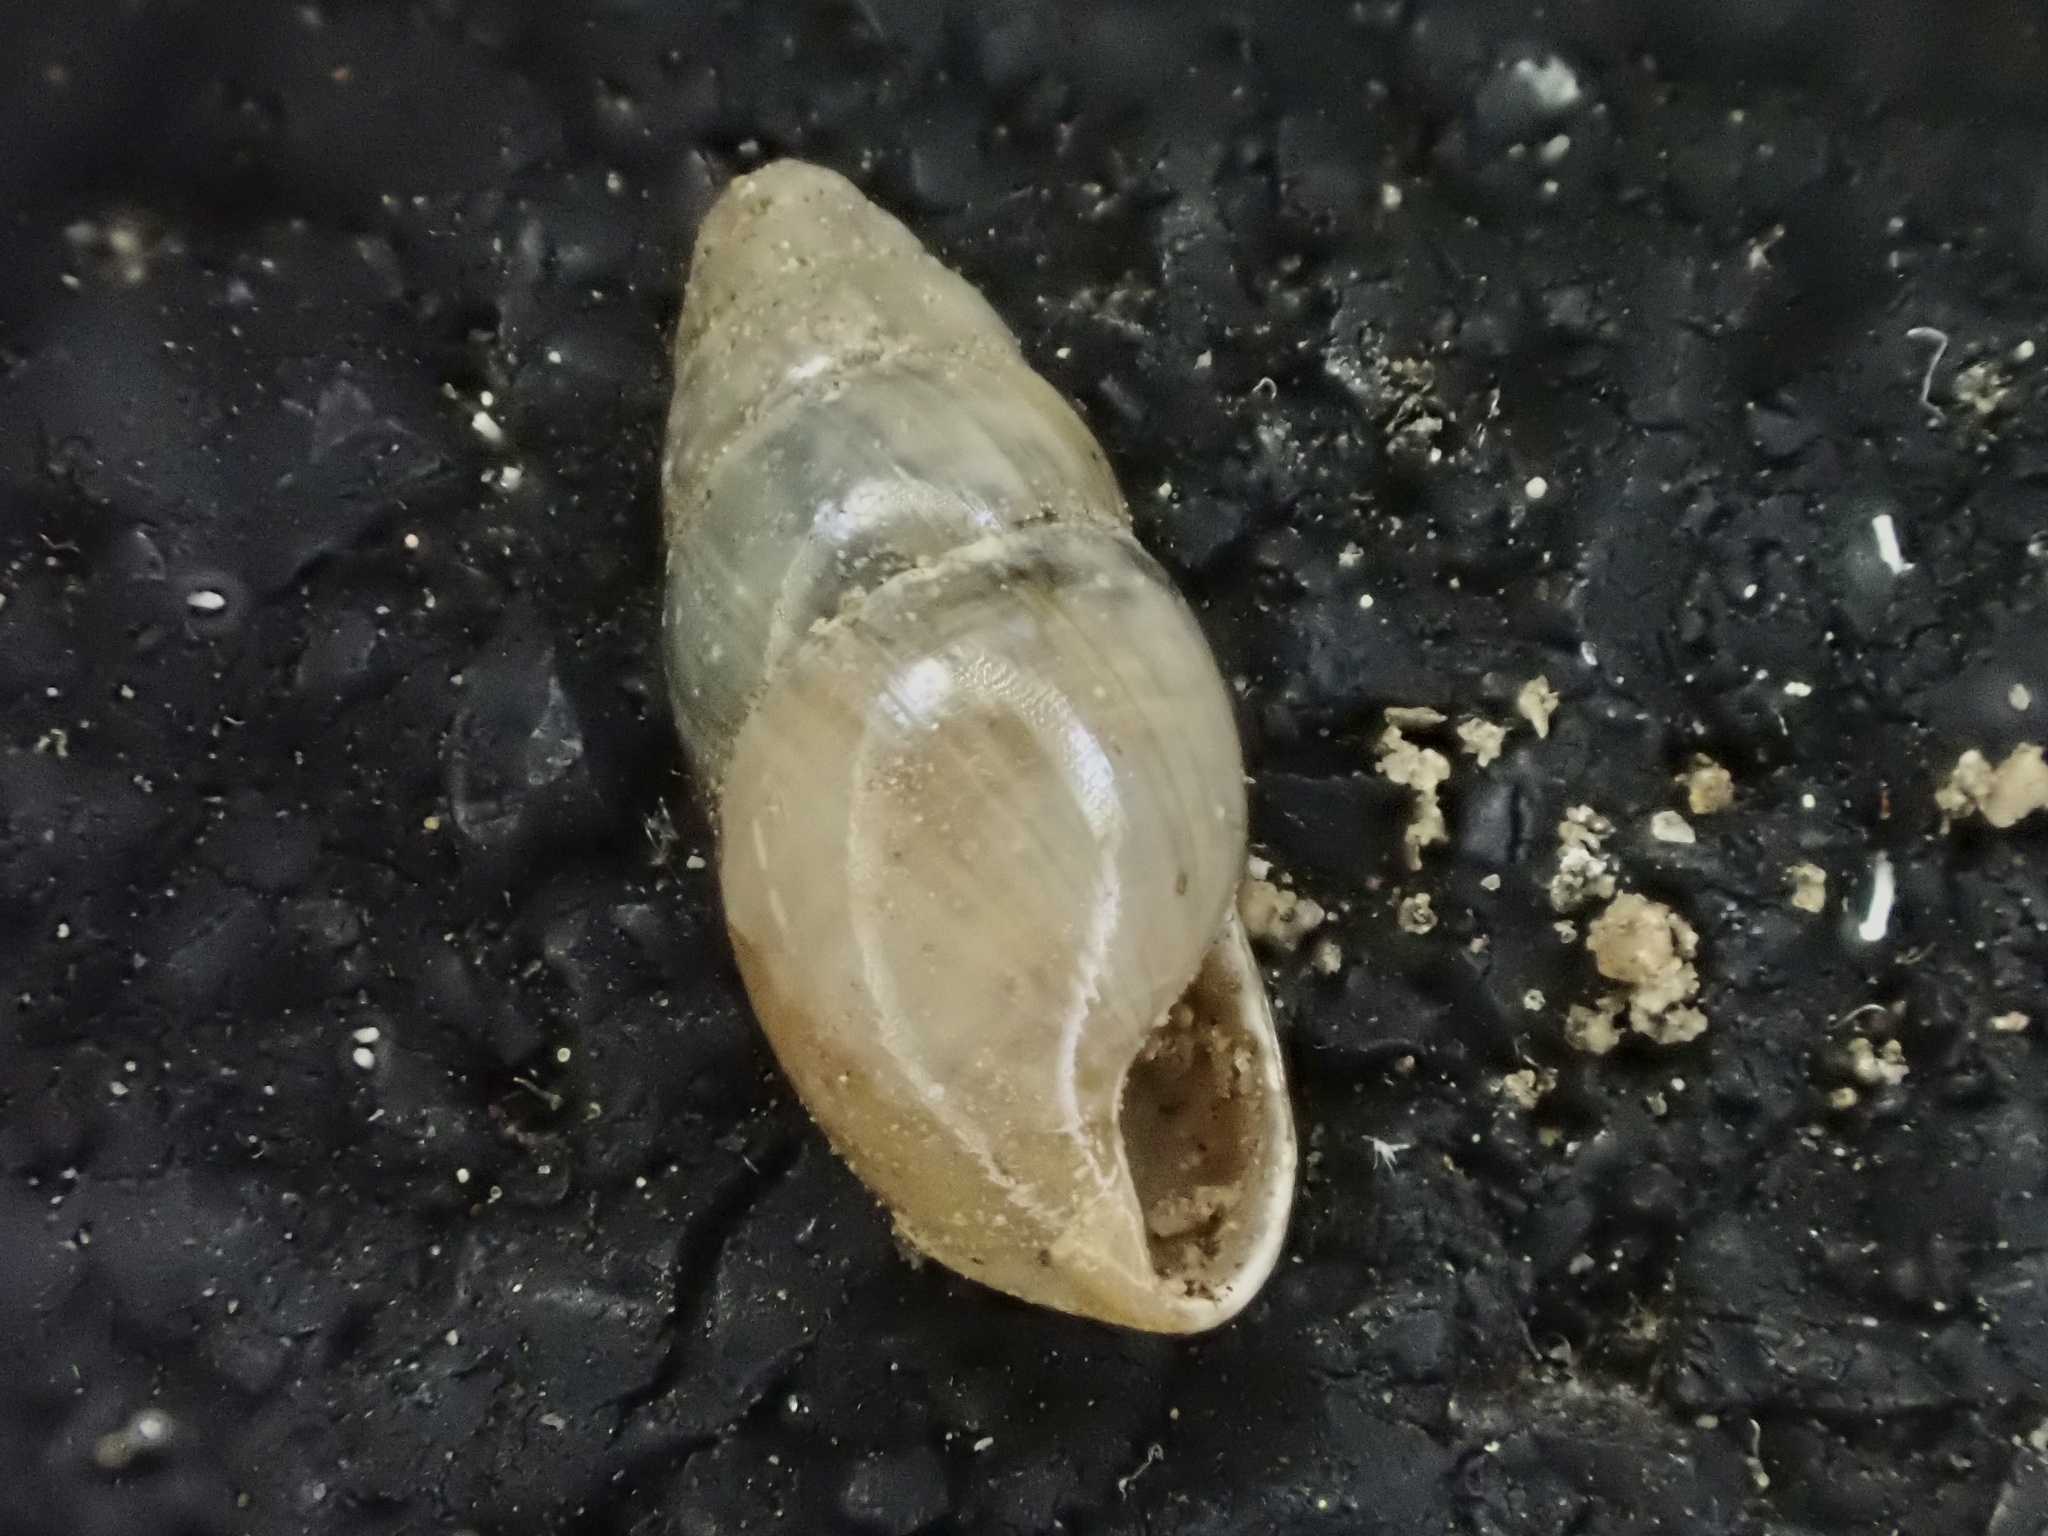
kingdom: Animalia
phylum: Mollusca
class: Gastropoda
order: Stylommatophora
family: Cochlicopidae
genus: Cochlicopa
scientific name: Cochlicopa lubrica
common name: Glossy pillar snail
